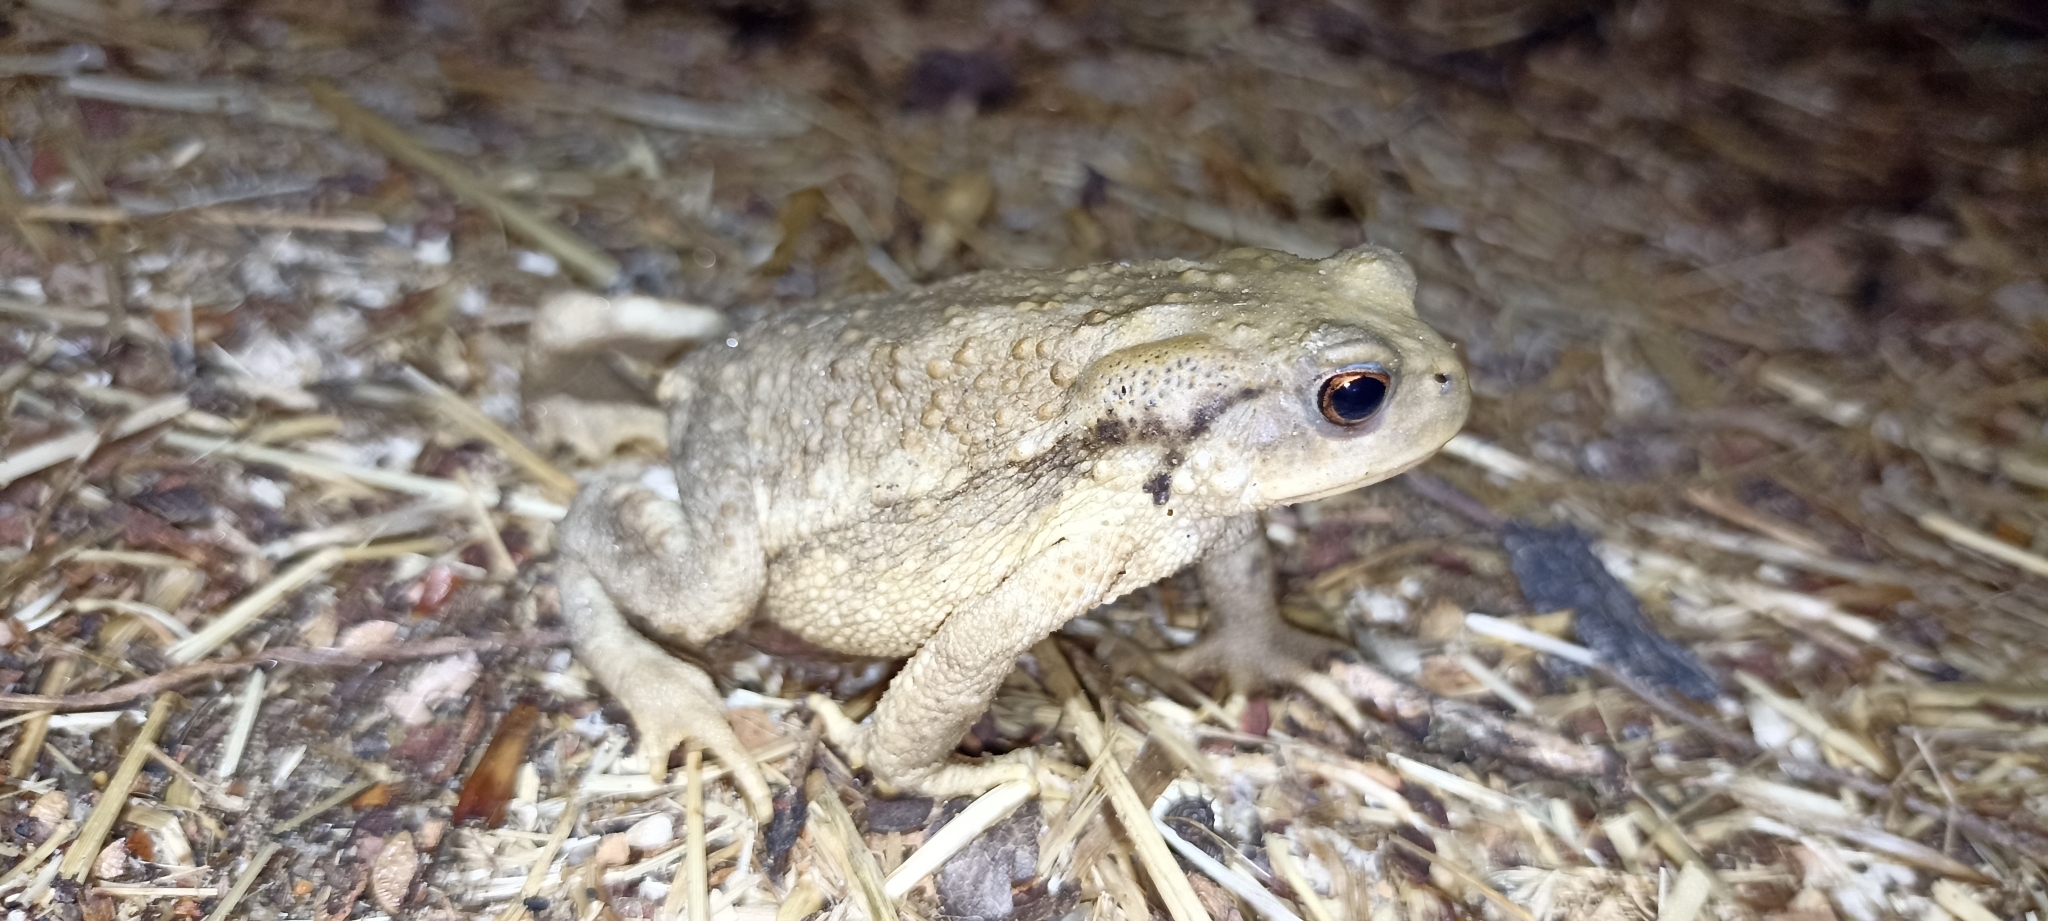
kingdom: Animalia
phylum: Chordata
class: Amphibia
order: Anura
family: Bufonidae
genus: Bufo
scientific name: Bufo spinosus
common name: Western common toad
